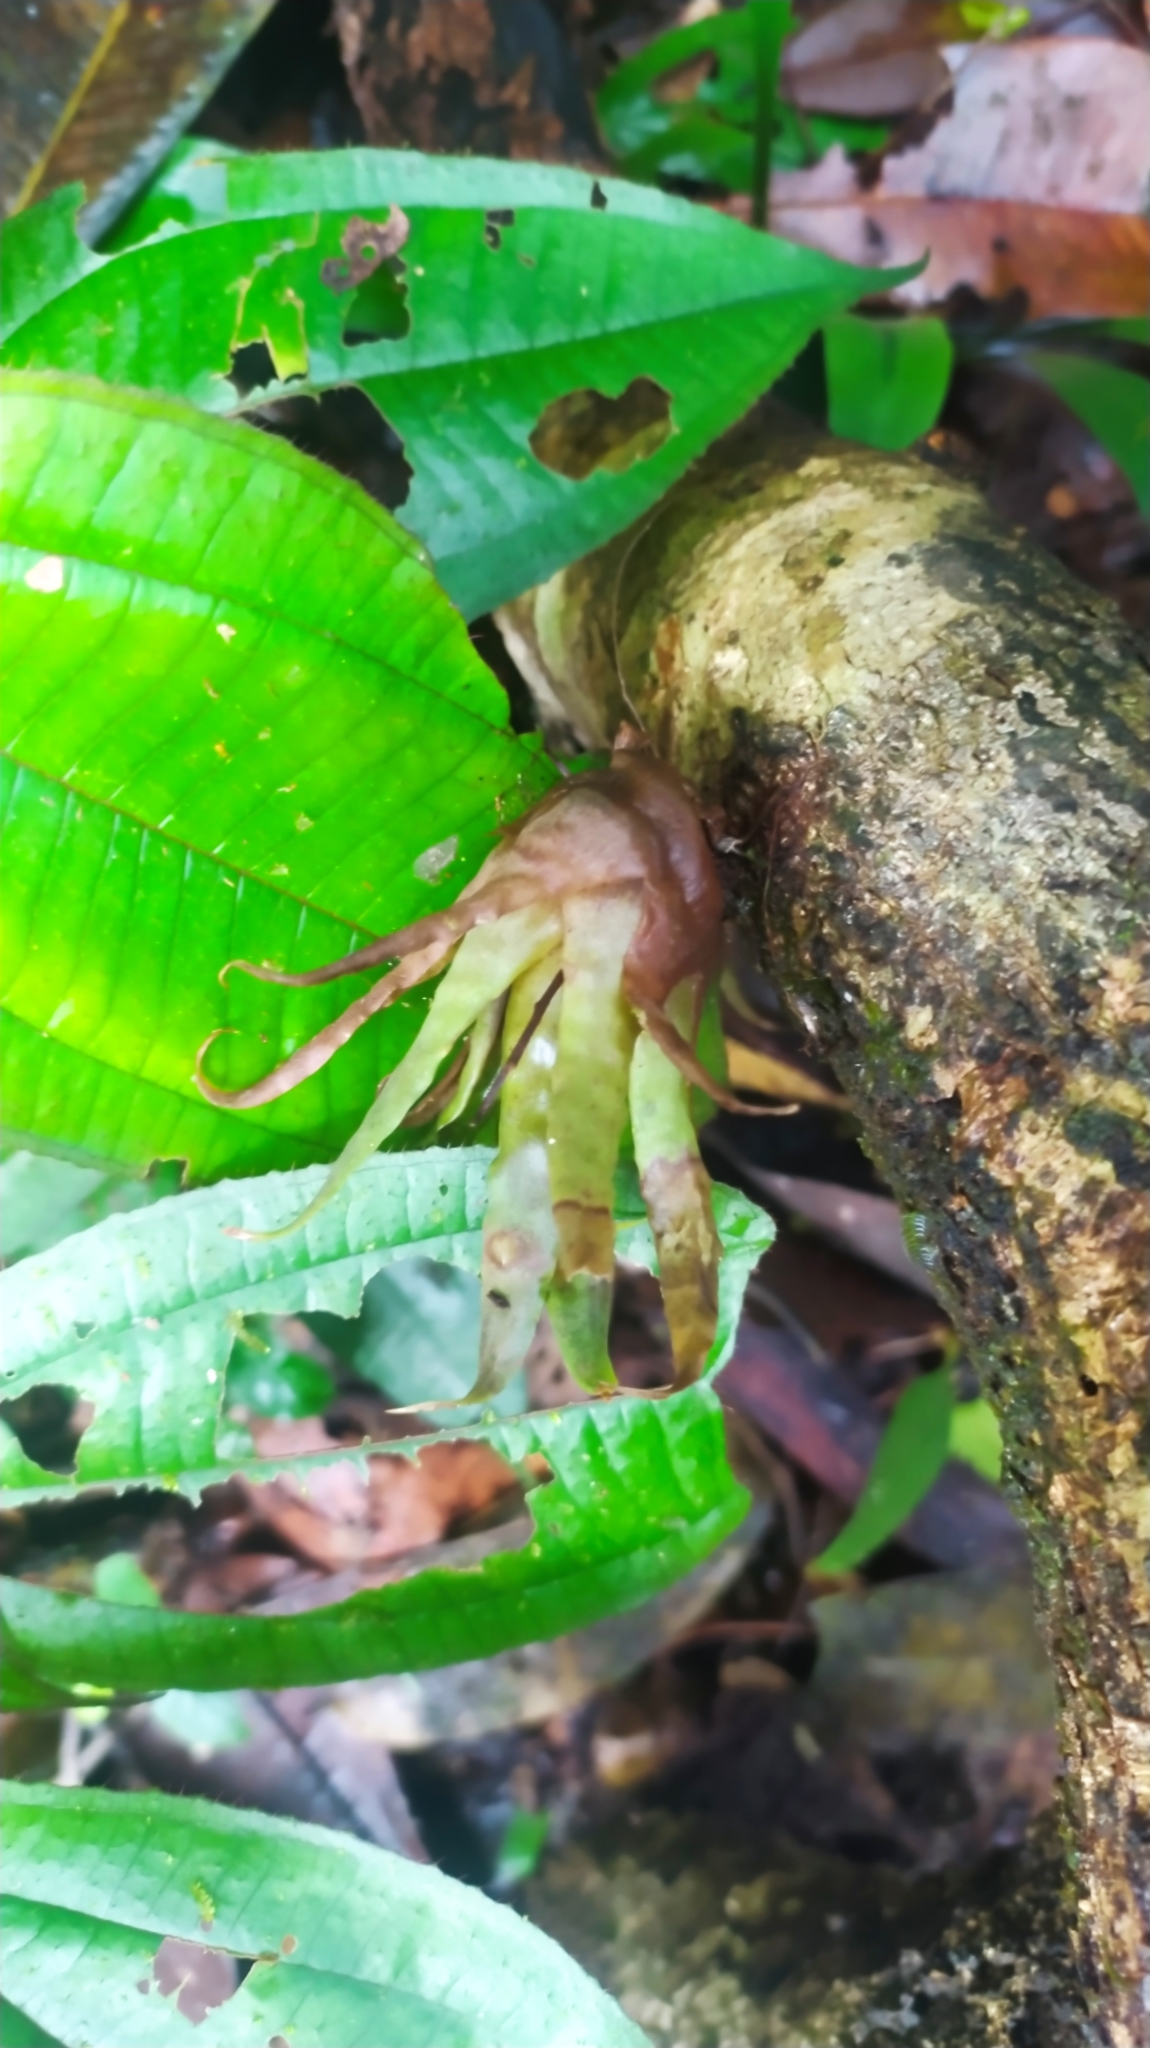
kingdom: Plantae
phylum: Tracheophyta
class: Liliopsida
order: Poales
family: Bromeliaceae
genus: Racinaea
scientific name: Racinaea spiculosa
